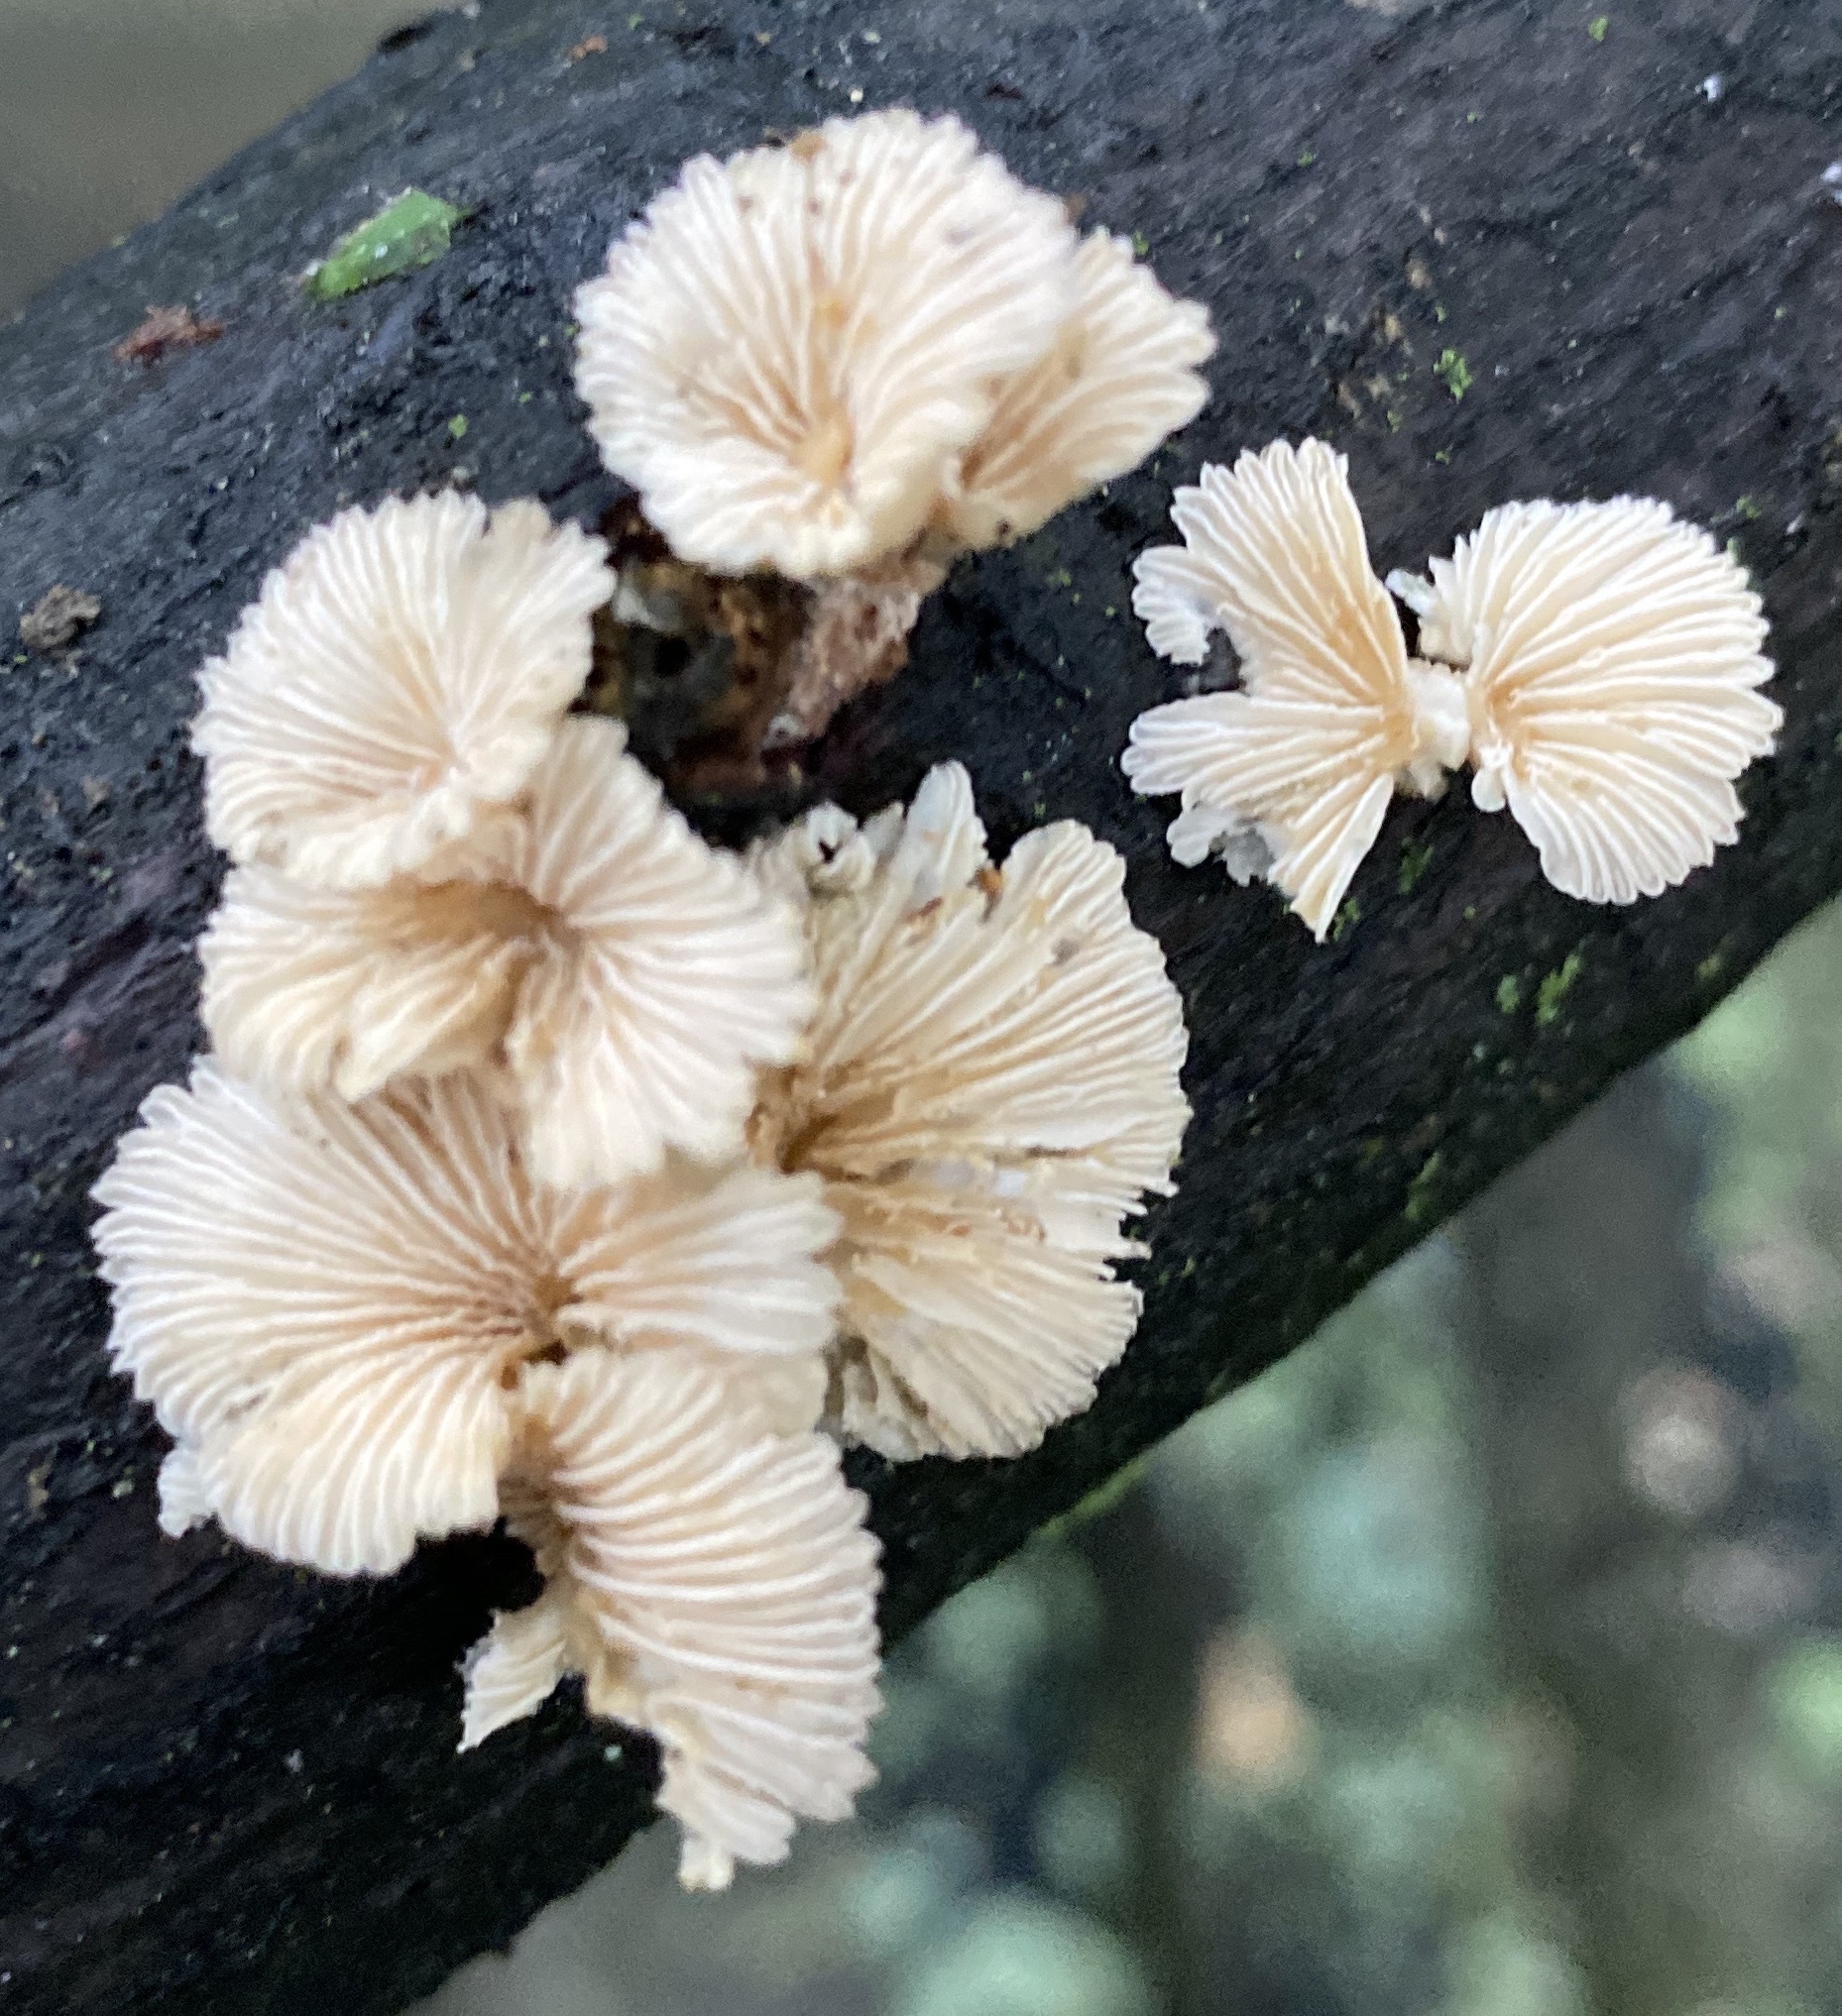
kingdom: Fungi
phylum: Basidiomycota
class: Agaricomycetes
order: Agaricales
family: Schizophyllaceae
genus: Schizophyllum
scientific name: Schizophyllum commune
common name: Common porecrust
